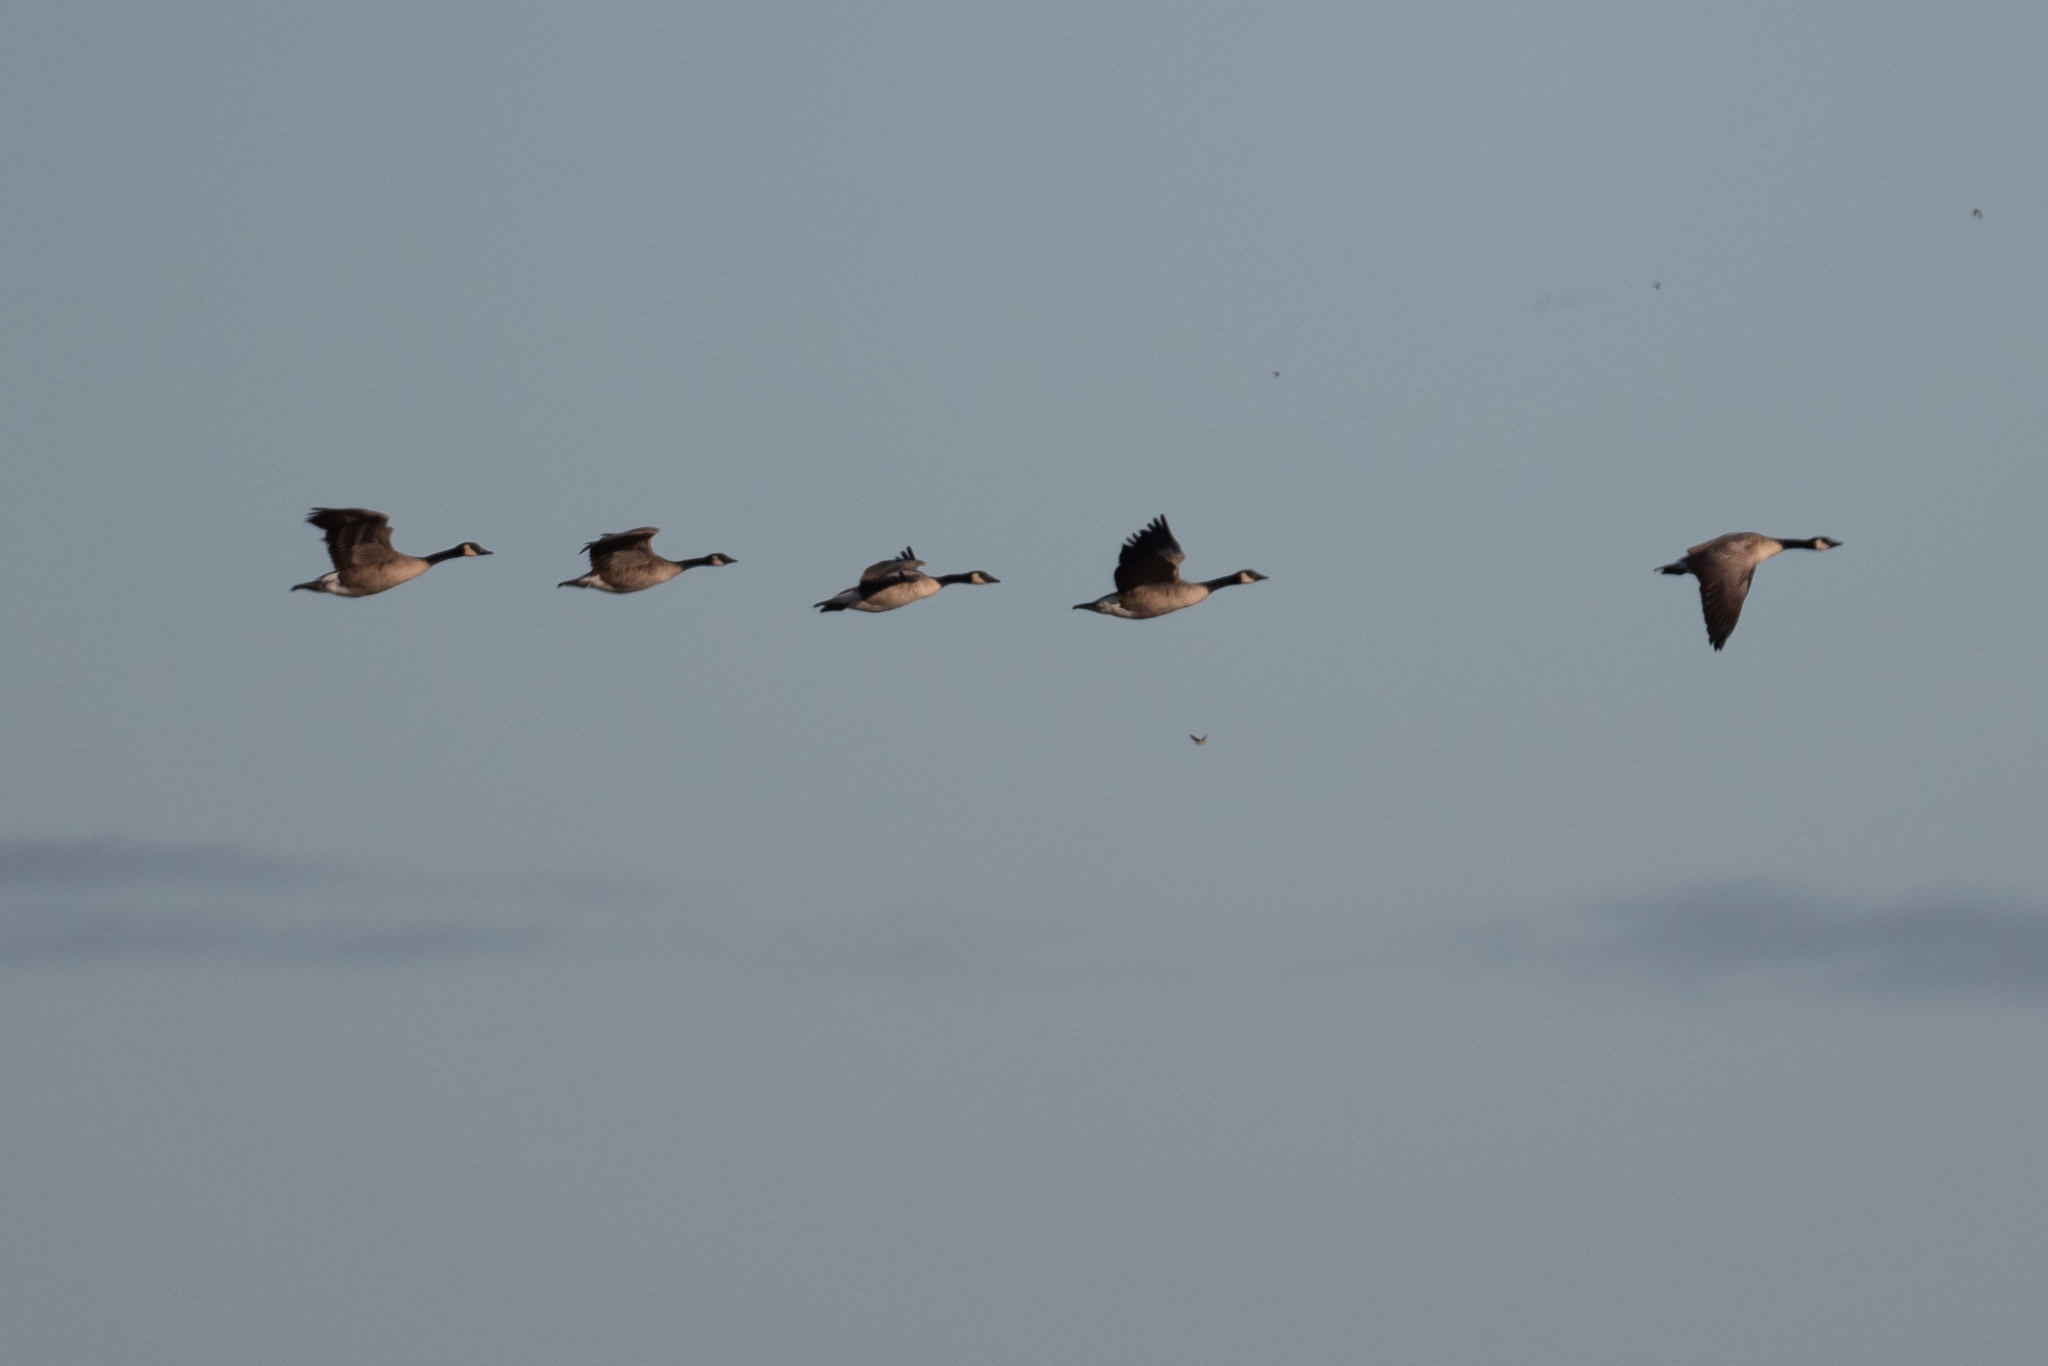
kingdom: Animalia
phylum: Chordata
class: Aves
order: Anseriformes
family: Anatidae
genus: Branta
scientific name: Branta canadensis
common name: Canada goose
